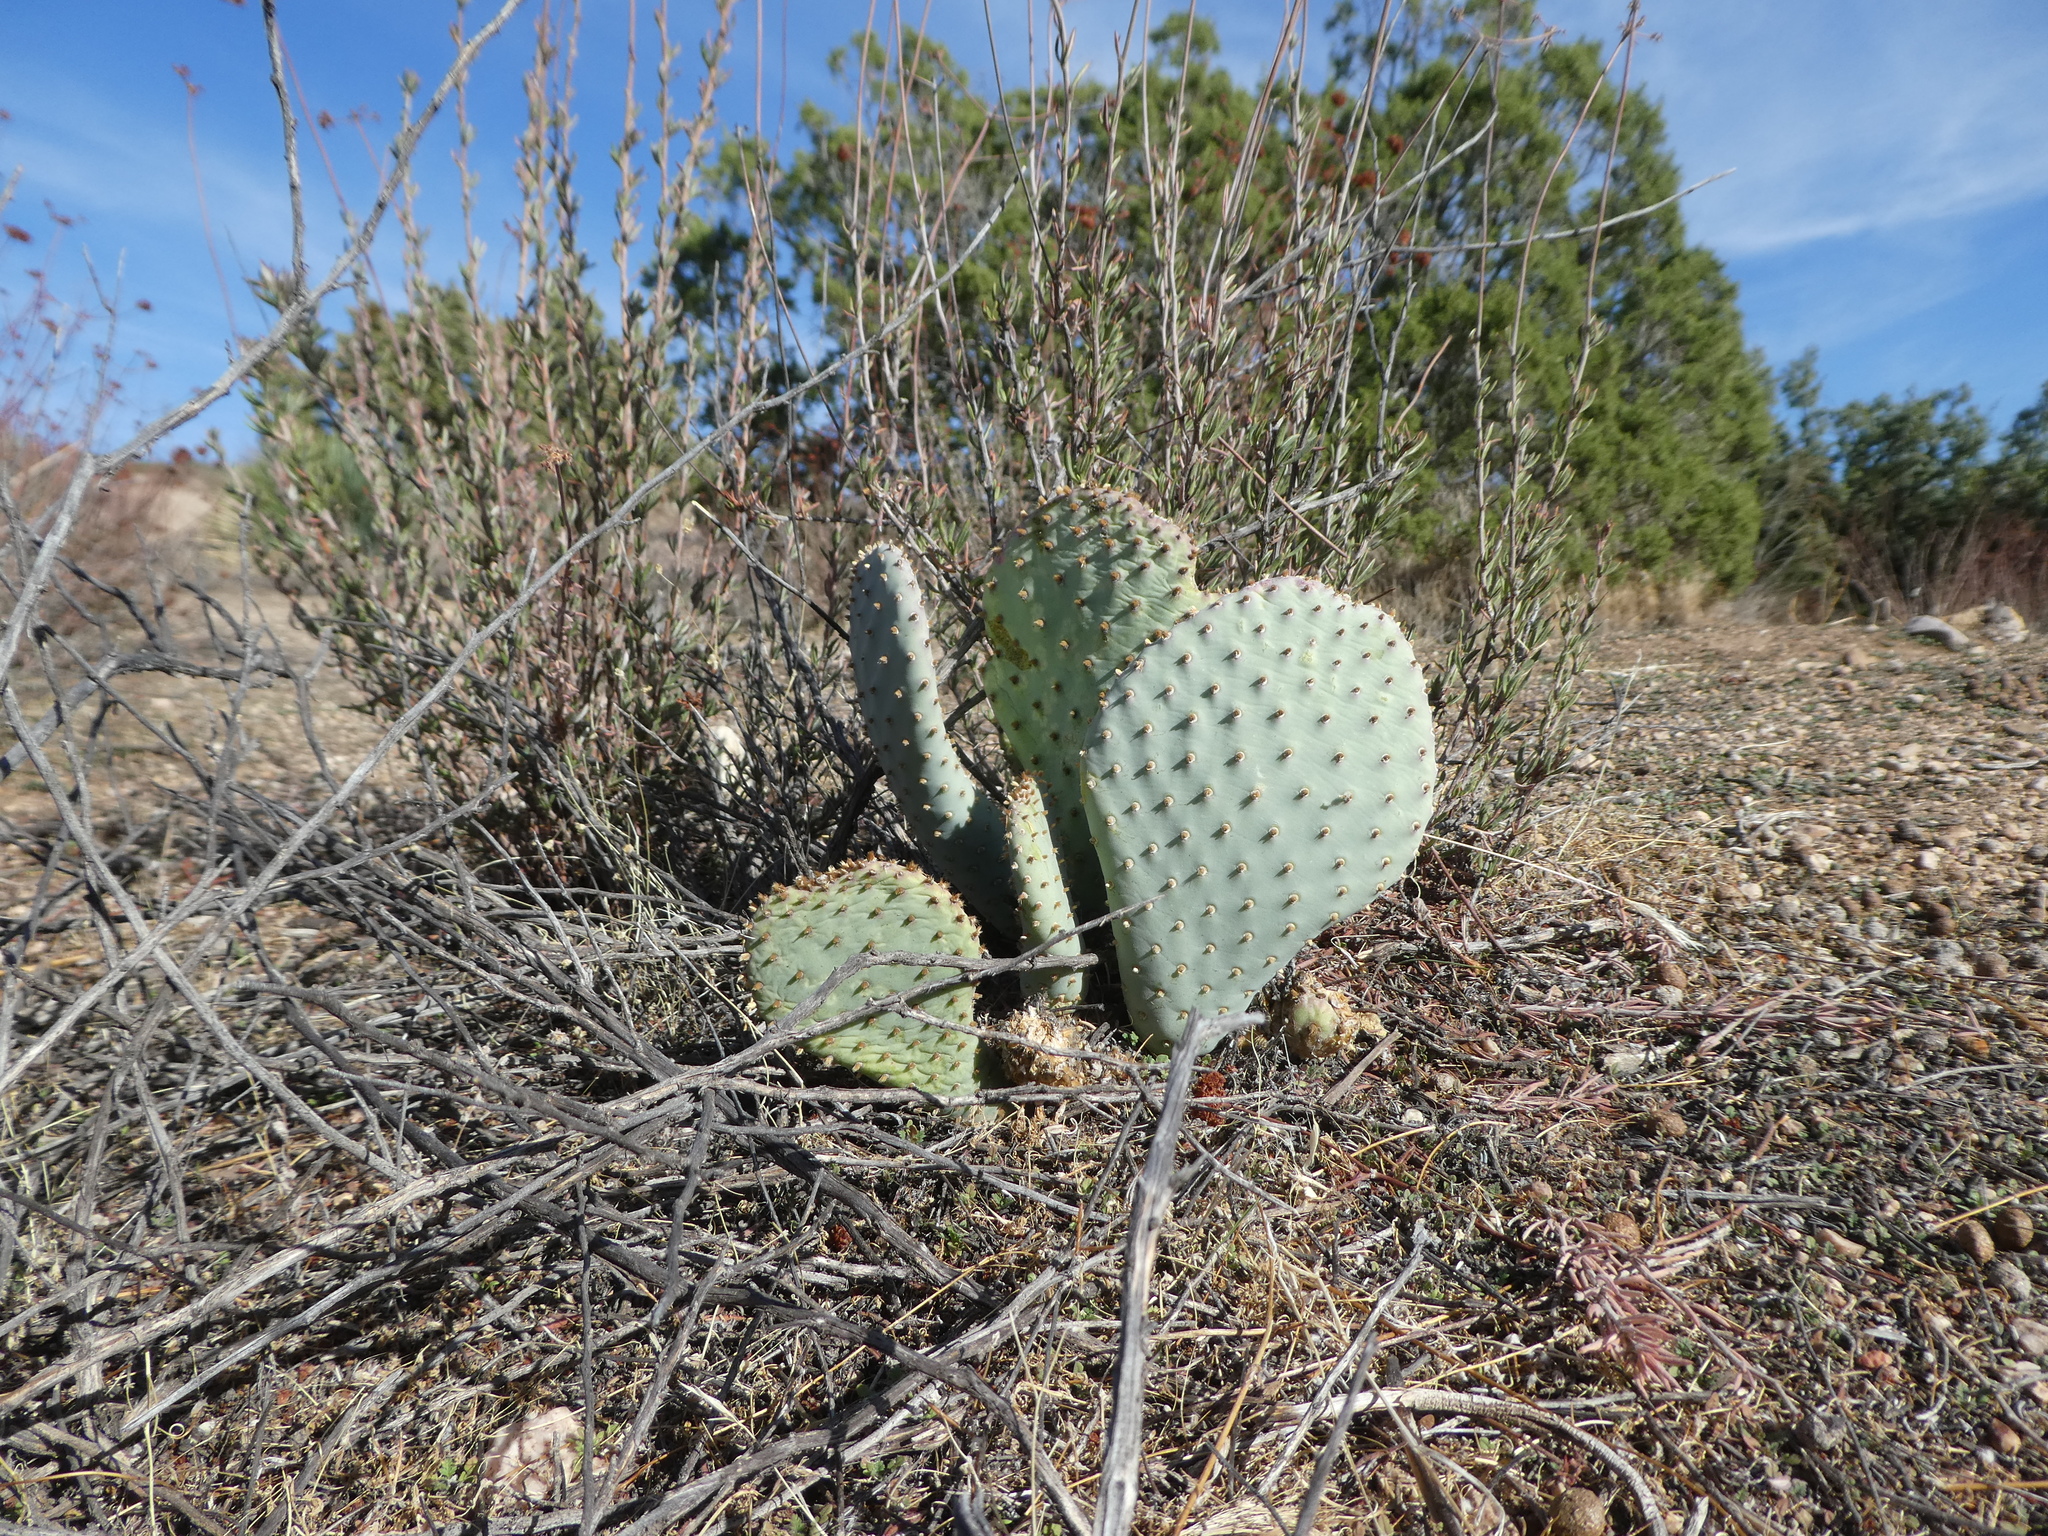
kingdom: Plantae
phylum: Tracheophyta
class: Magnoliopsida
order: Caryophyllales
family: Cactaceae
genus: Opuntia
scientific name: Opuntia basilaris
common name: Beavertail prickly-pear
